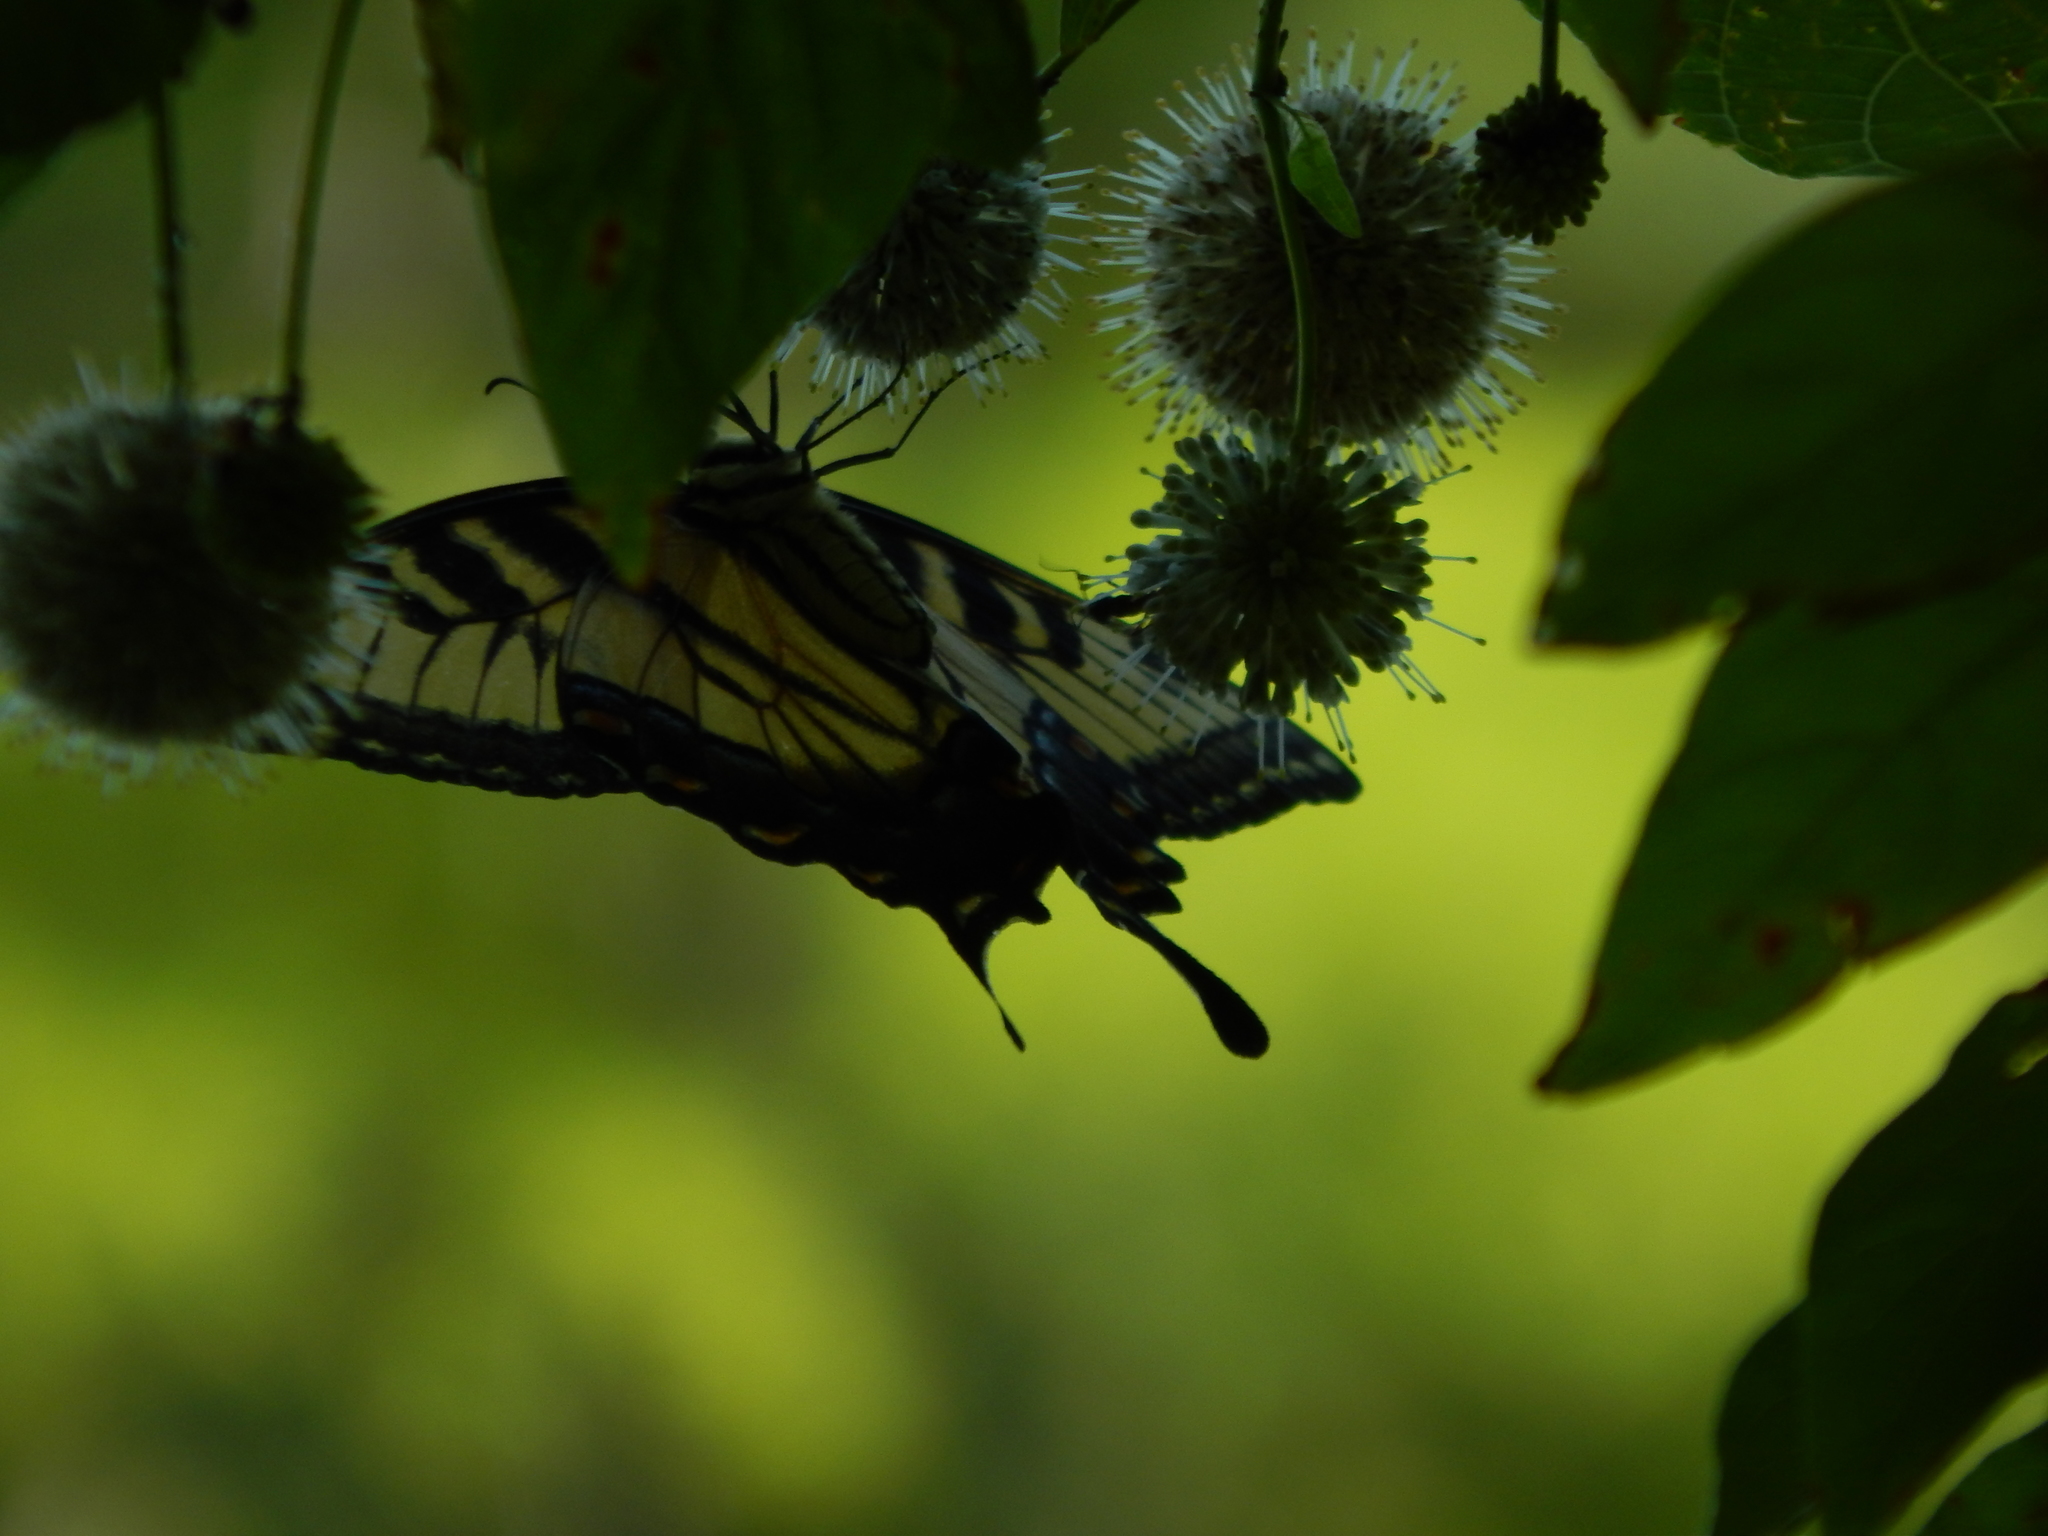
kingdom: Animalia
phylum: Arthropoda
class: Insecta
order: Lepidoptera
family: Papilionidae
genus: Papilio
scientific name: Papilio glaucus
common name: Tiger swallowtail
